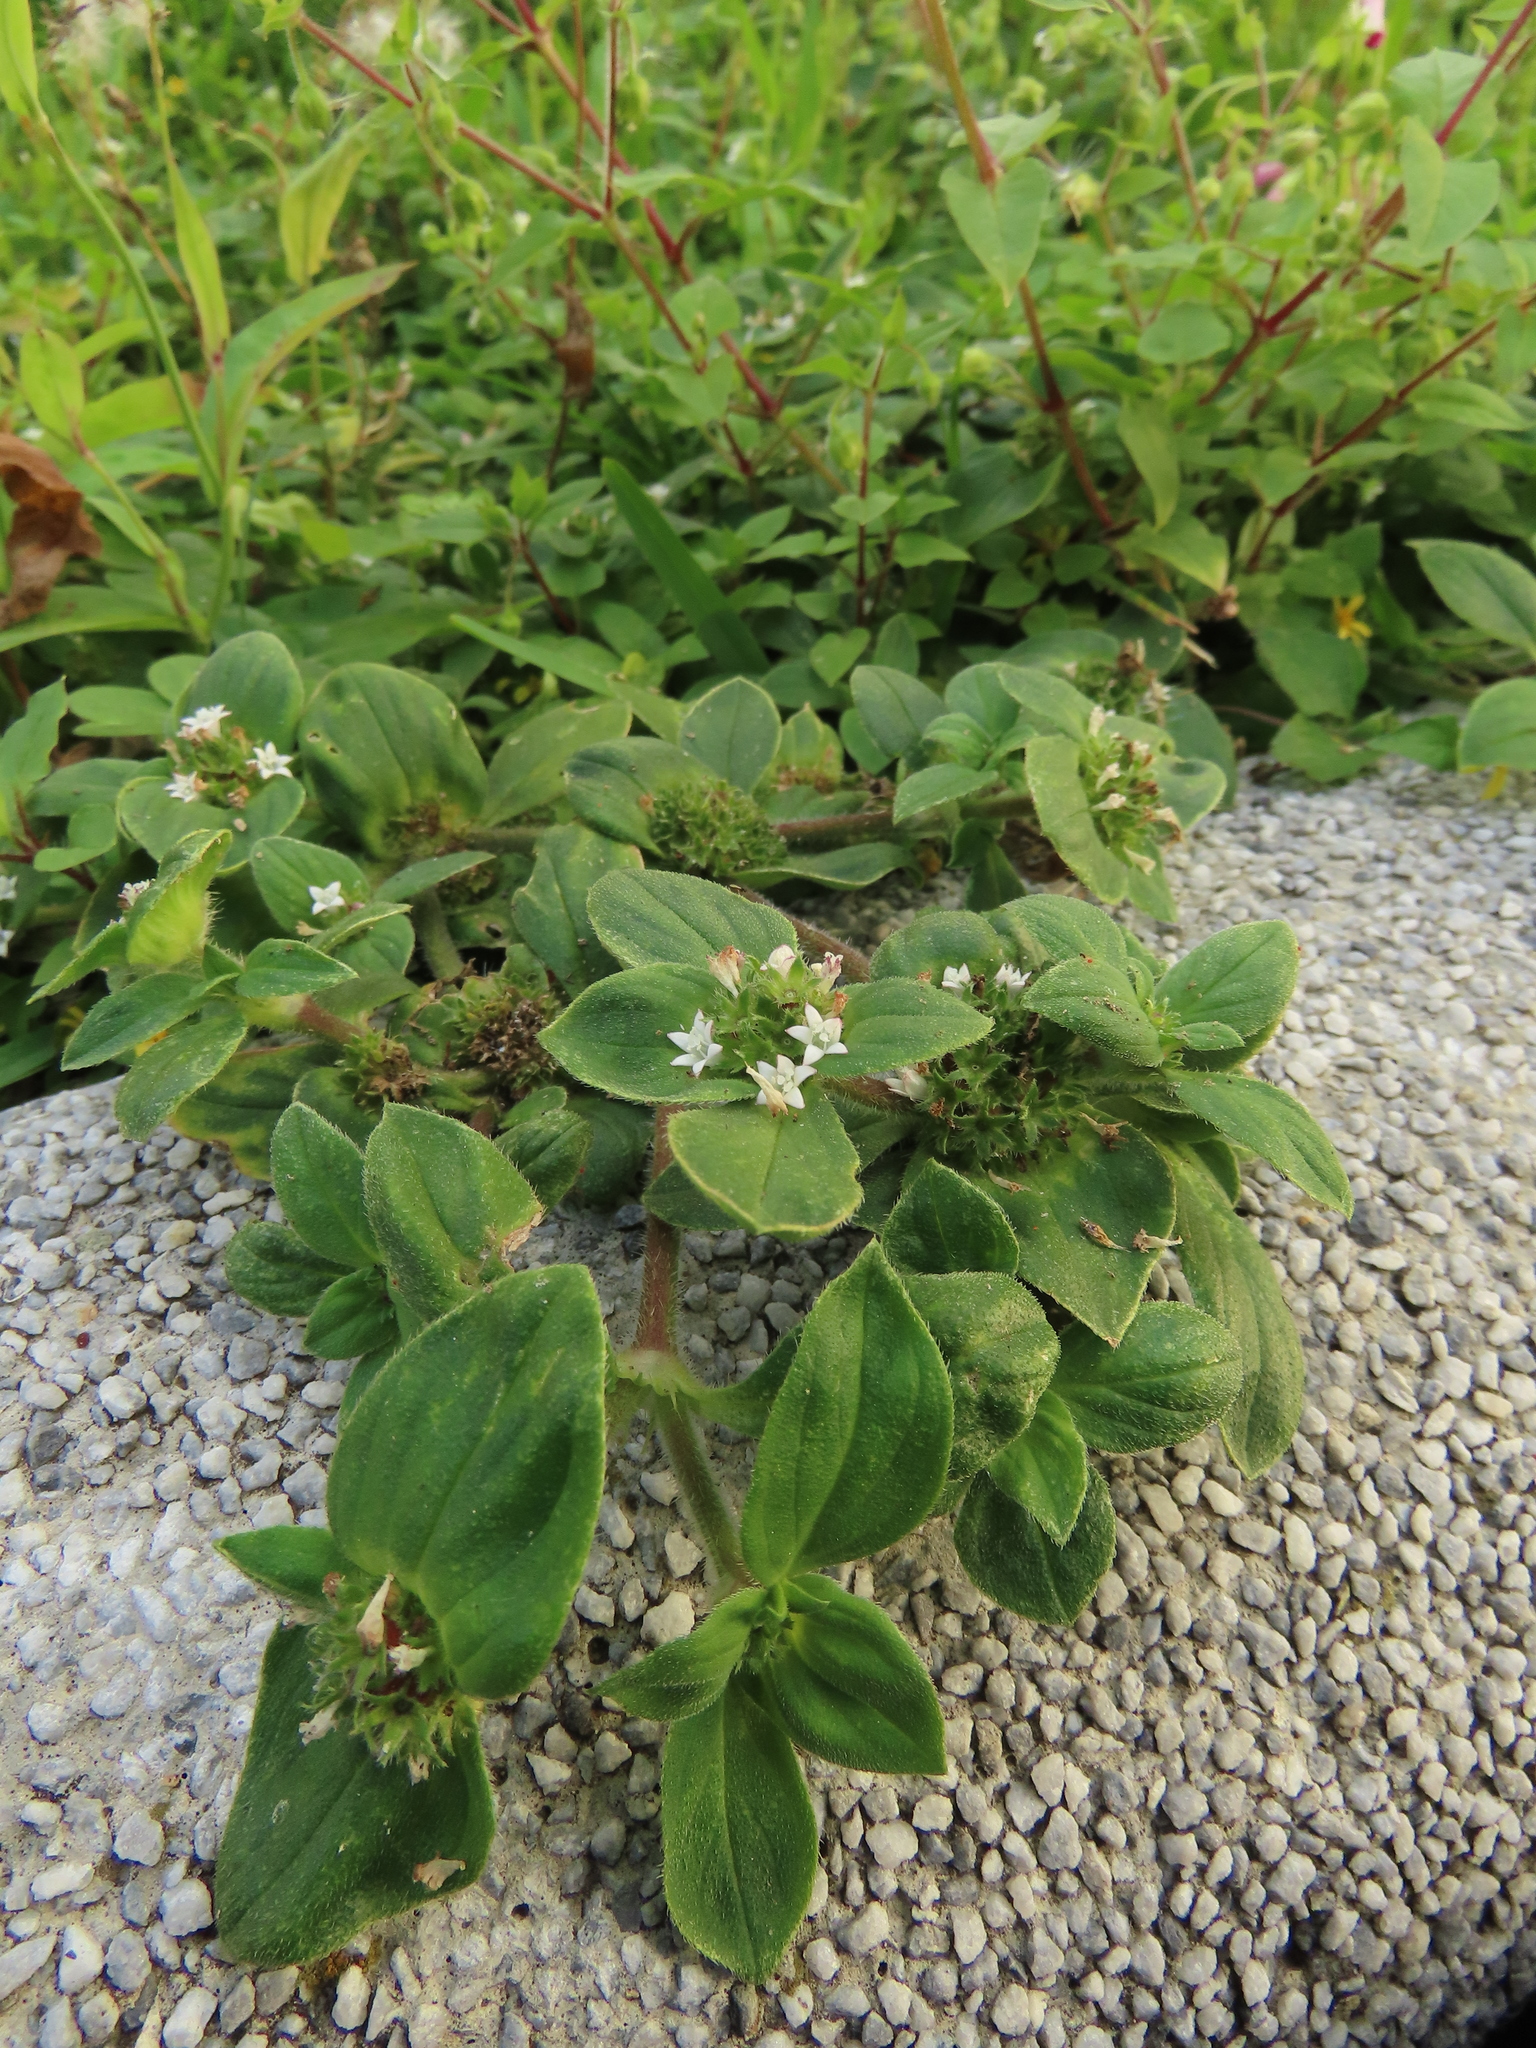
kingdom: Plantae
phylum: Tracheophyta
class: Magnoliopsida
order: Gentianales
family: Rubiaceae
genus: Richardia
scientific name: Richardia brasiliensis
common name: Tropical mexican clover
